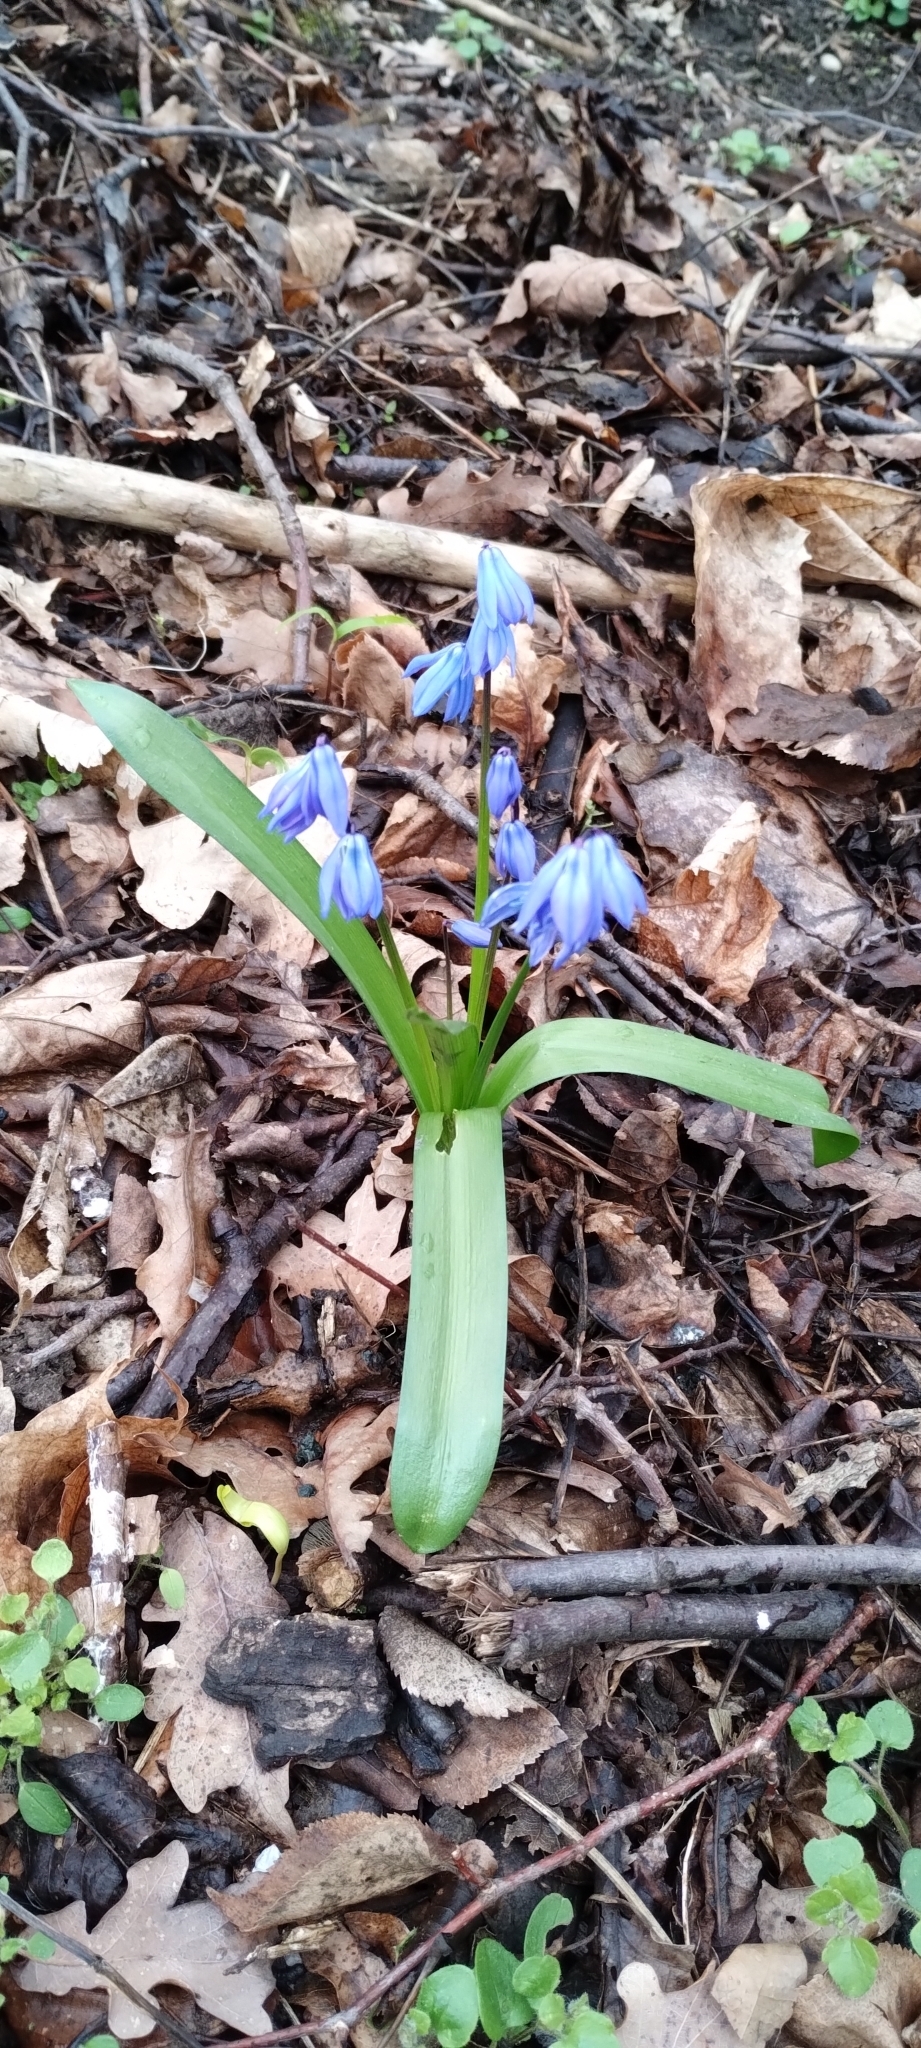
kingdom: Plantae
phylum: Tracheophyta
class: Liliopsida
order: Asparagales
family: Asparagaceae
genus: Scilla
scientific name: Scilla siberica
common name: Siberian squill
